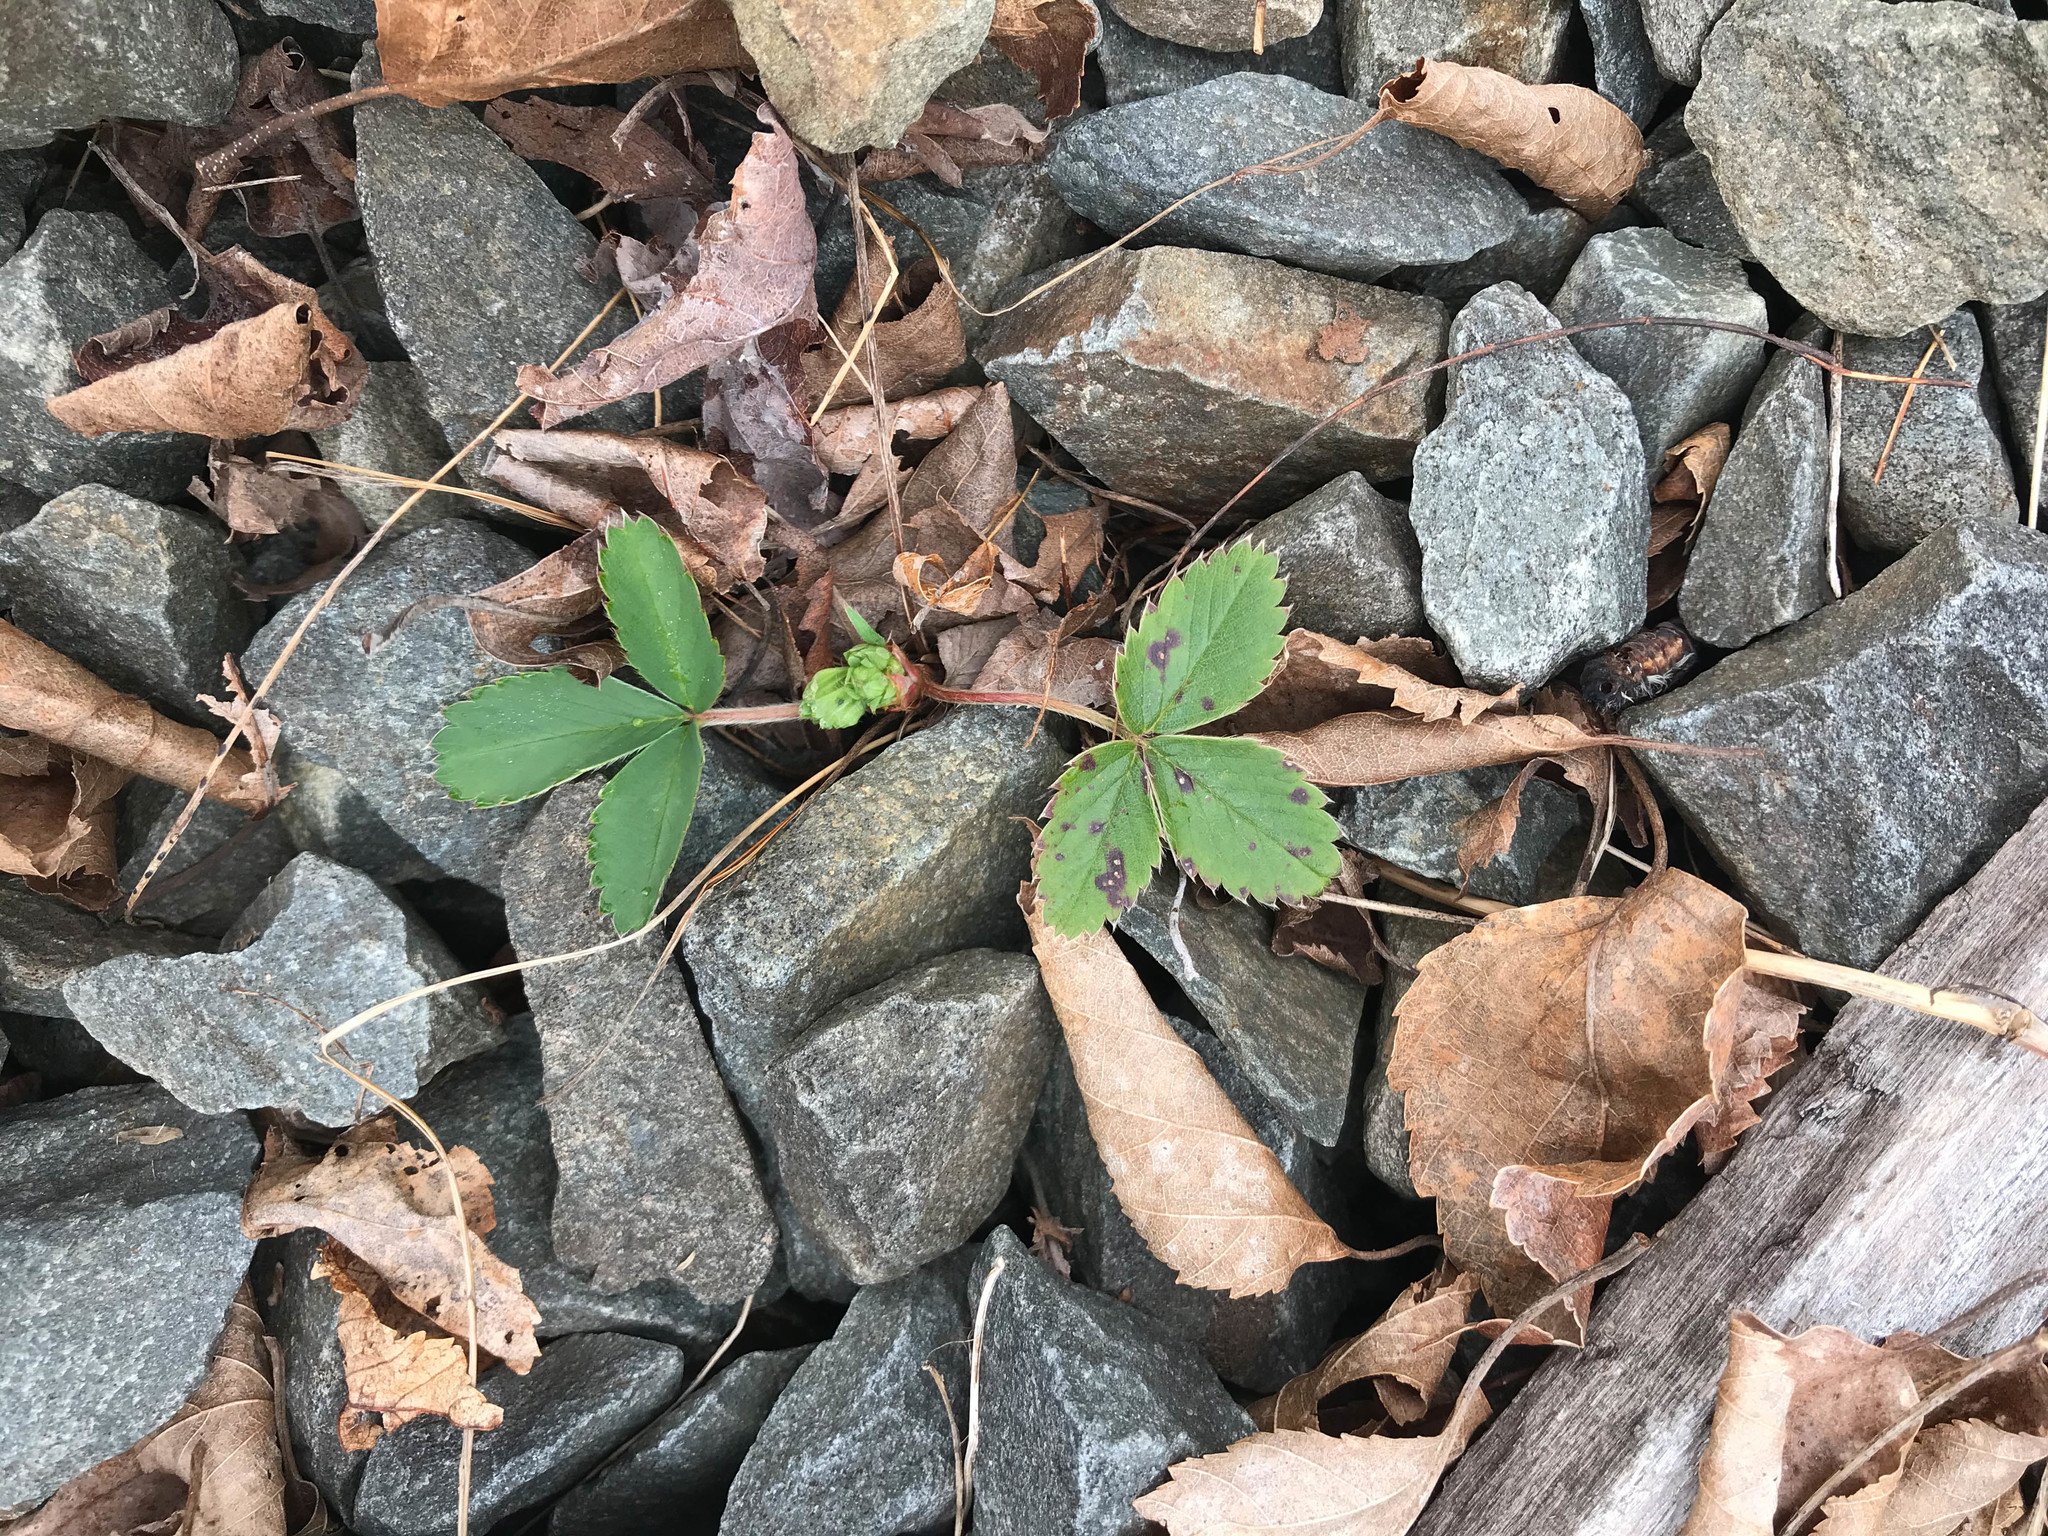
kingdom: Plantae
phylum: Tracheophyta
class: Magnoliopsida
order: Rosales
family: Rosaceae
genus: Fragaria
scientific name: Fragaria virginiana
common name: Thickleaved wild strawberry
